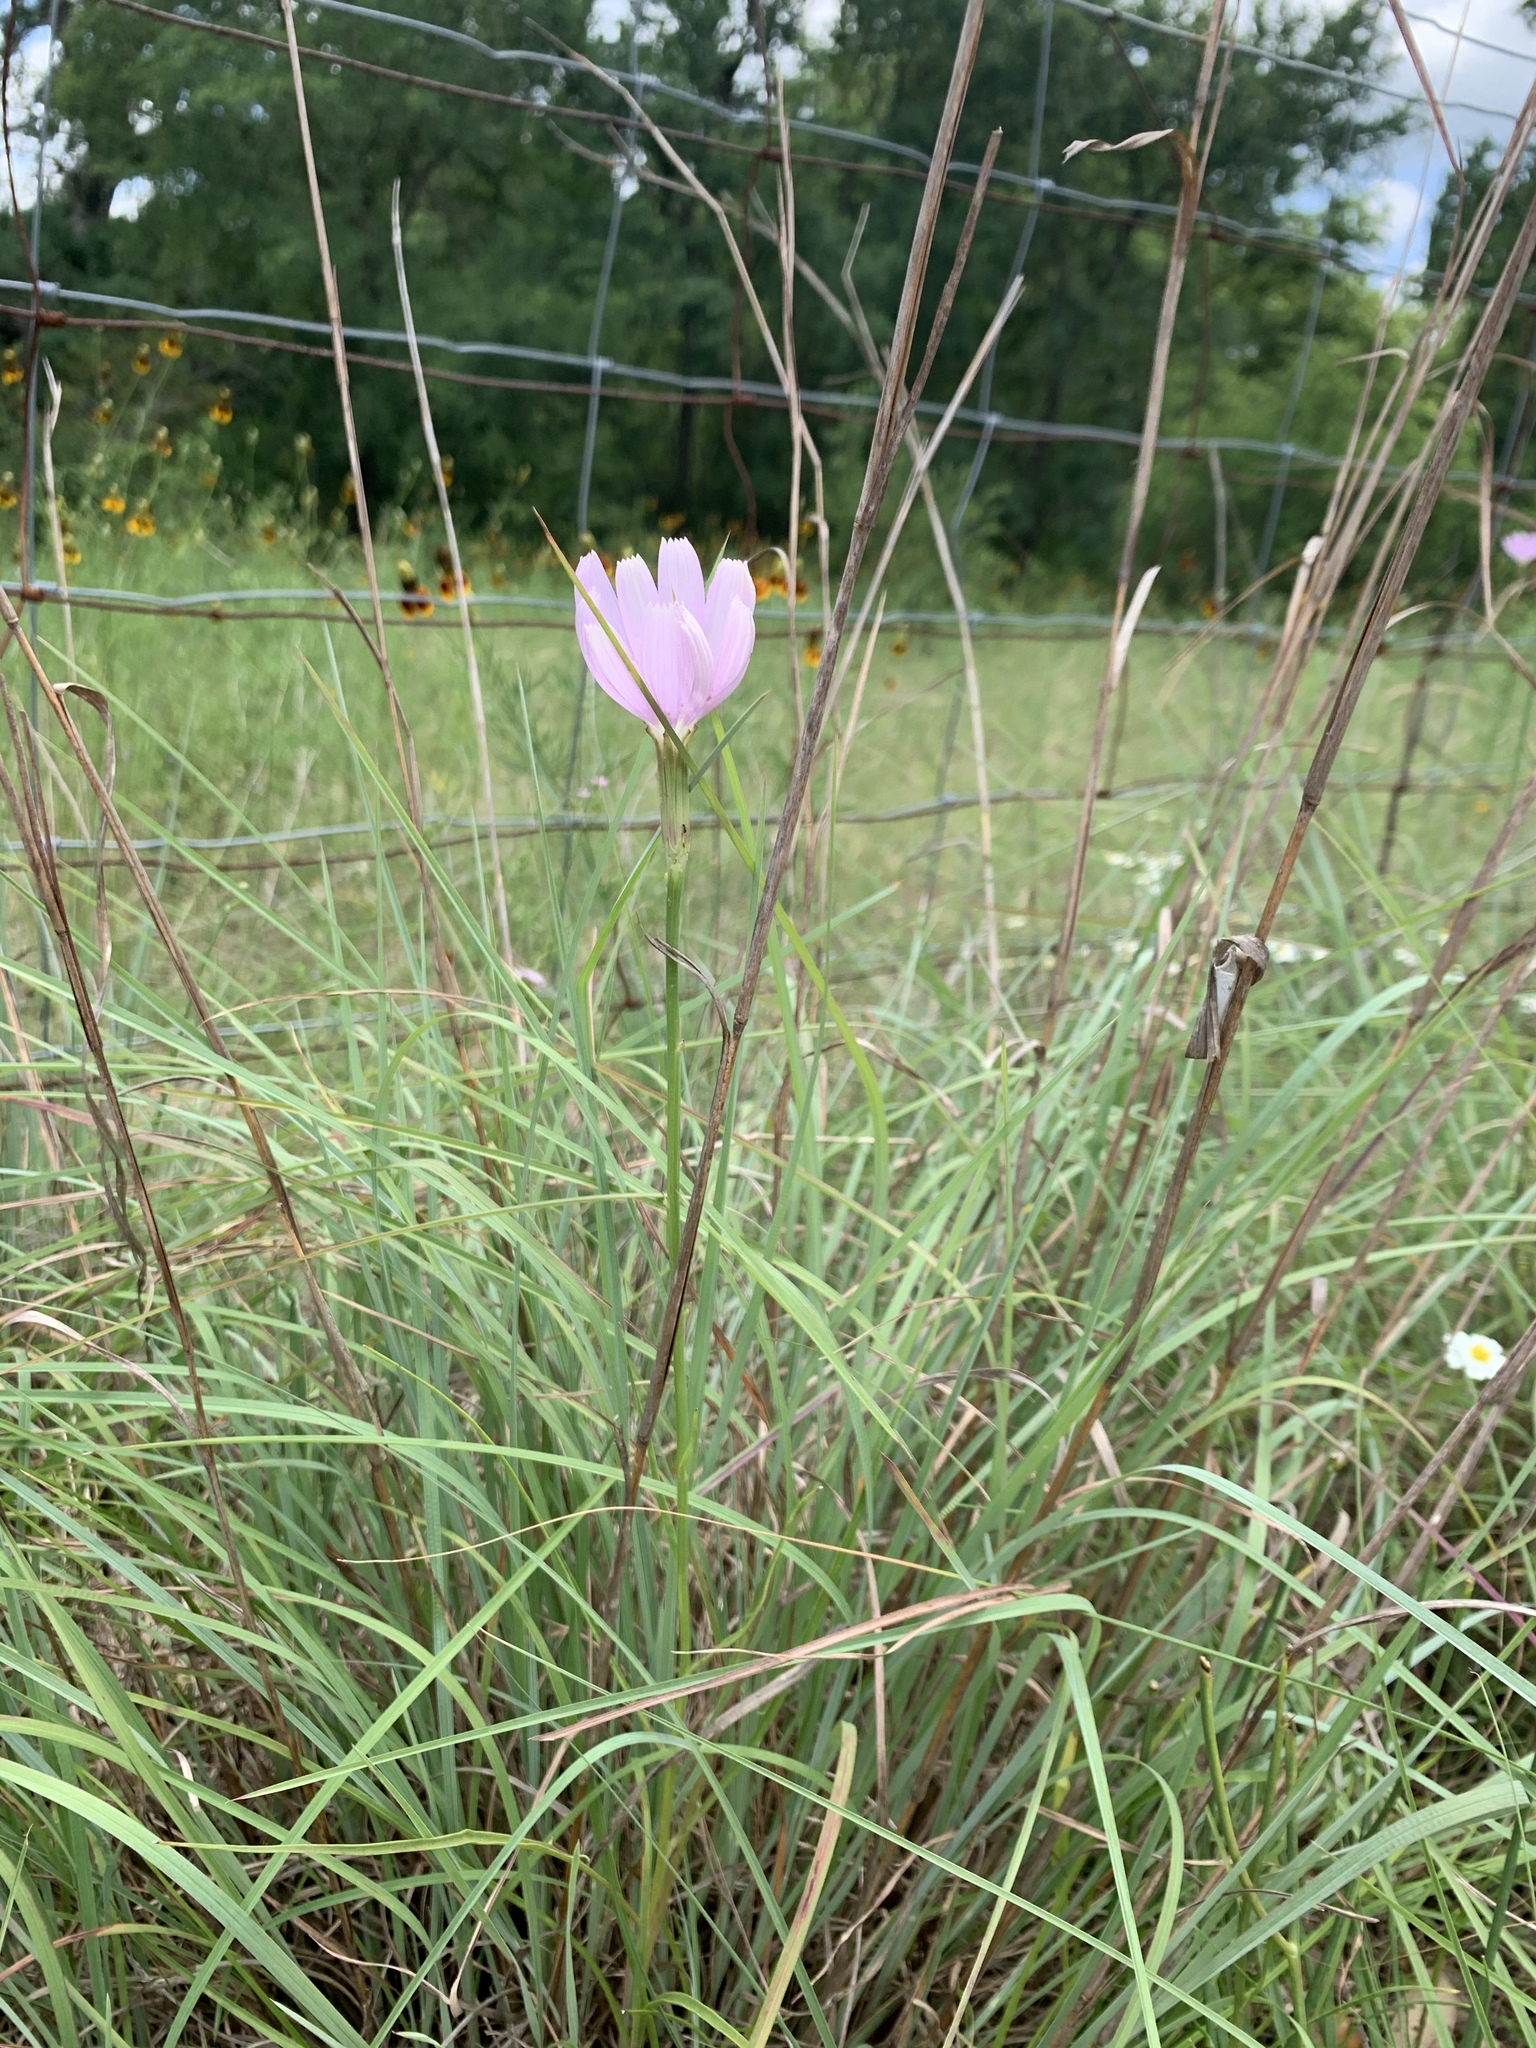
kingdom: Plantae
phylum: Tracheophyta
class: Magnoliopsida
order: Asterales
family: Asteraceae
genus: Lygodesmia
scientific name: Lygodesmia texana
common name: Texas skeleton-plant
